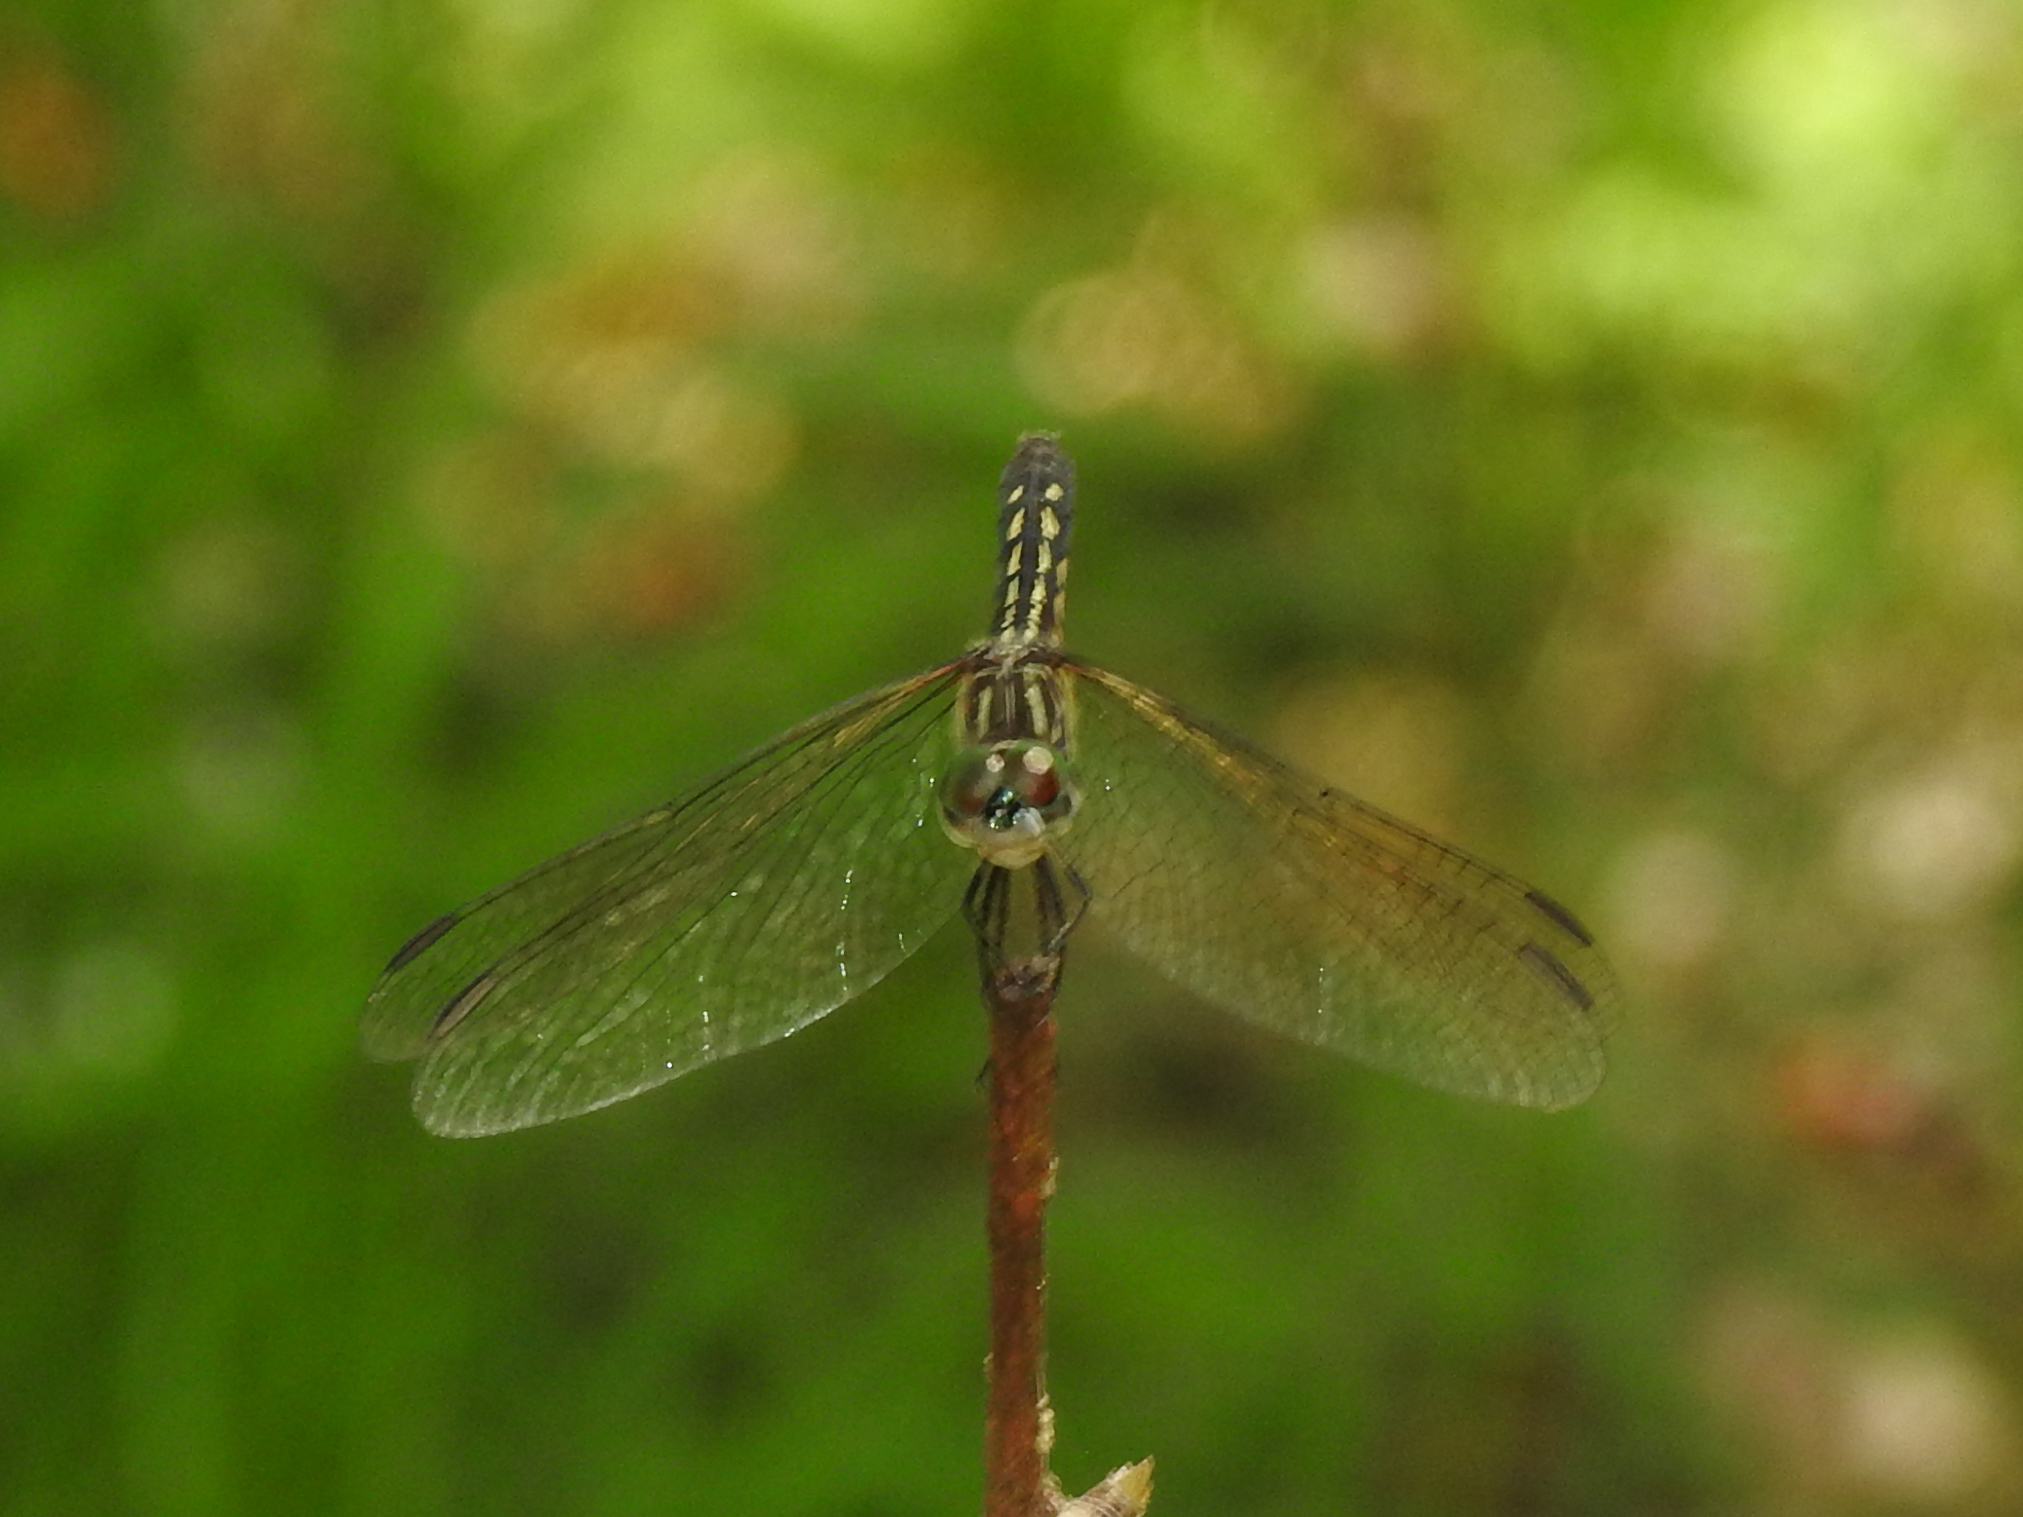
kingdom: Animalia
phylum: Arthropoda
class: Insecta
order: Odonata
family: Libellulidae
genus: Pachydiplax
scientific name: Pachydiplax longipennis
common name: Blue dasher
